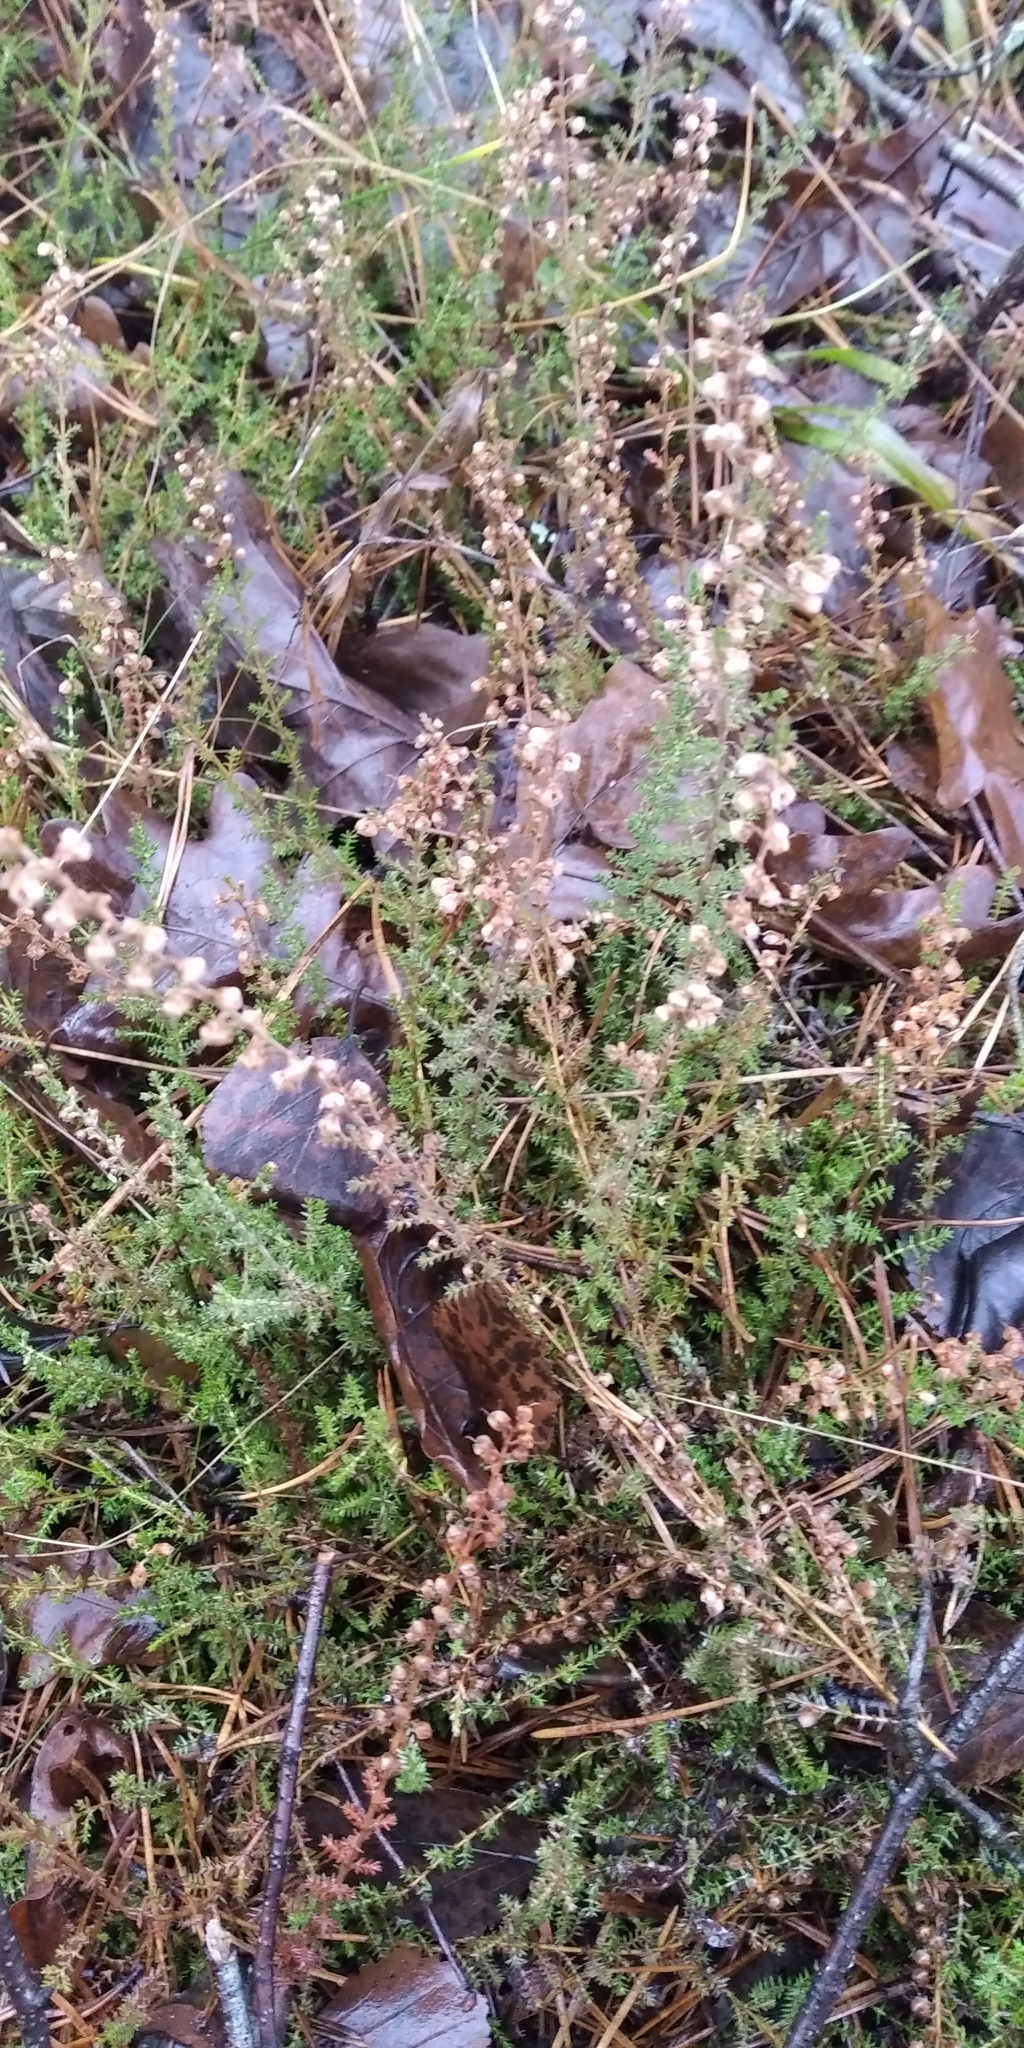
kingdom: Plantae
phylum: Tracheophyta
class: Magnoliopsida
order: Ericales
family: Ericaceae
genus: Calluna
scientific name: Calluna vulgaris
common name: Heather
